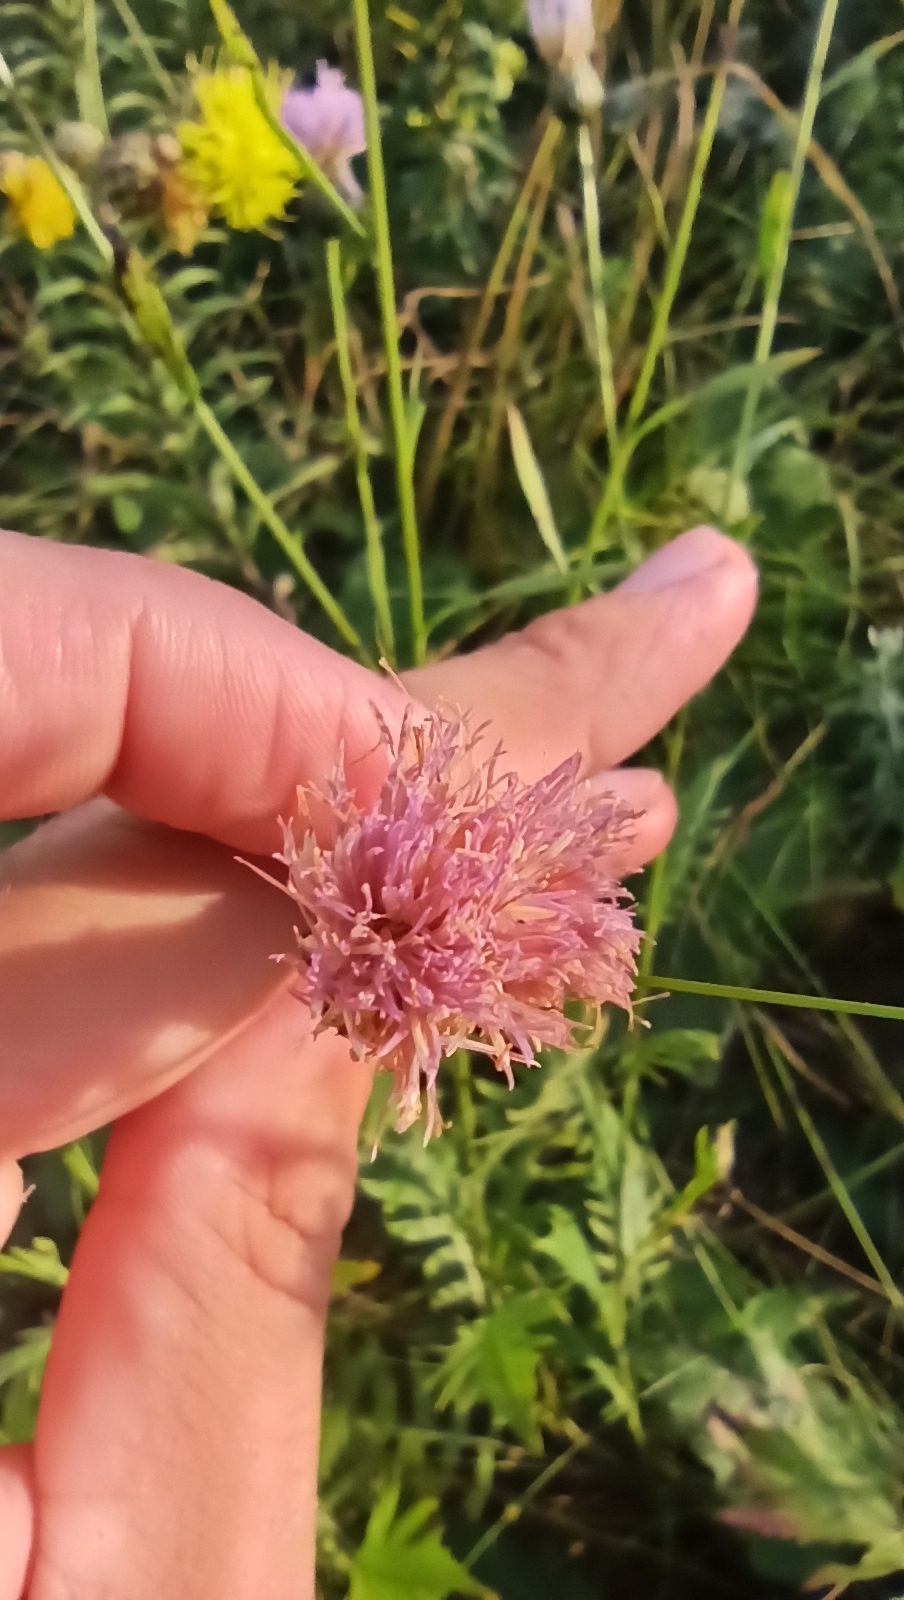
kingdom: Plantae
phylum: Tracheophyta
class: Magnoliopsida
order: Asterales
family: Asteraceae
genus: Klasea
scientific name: Klasea radiata
